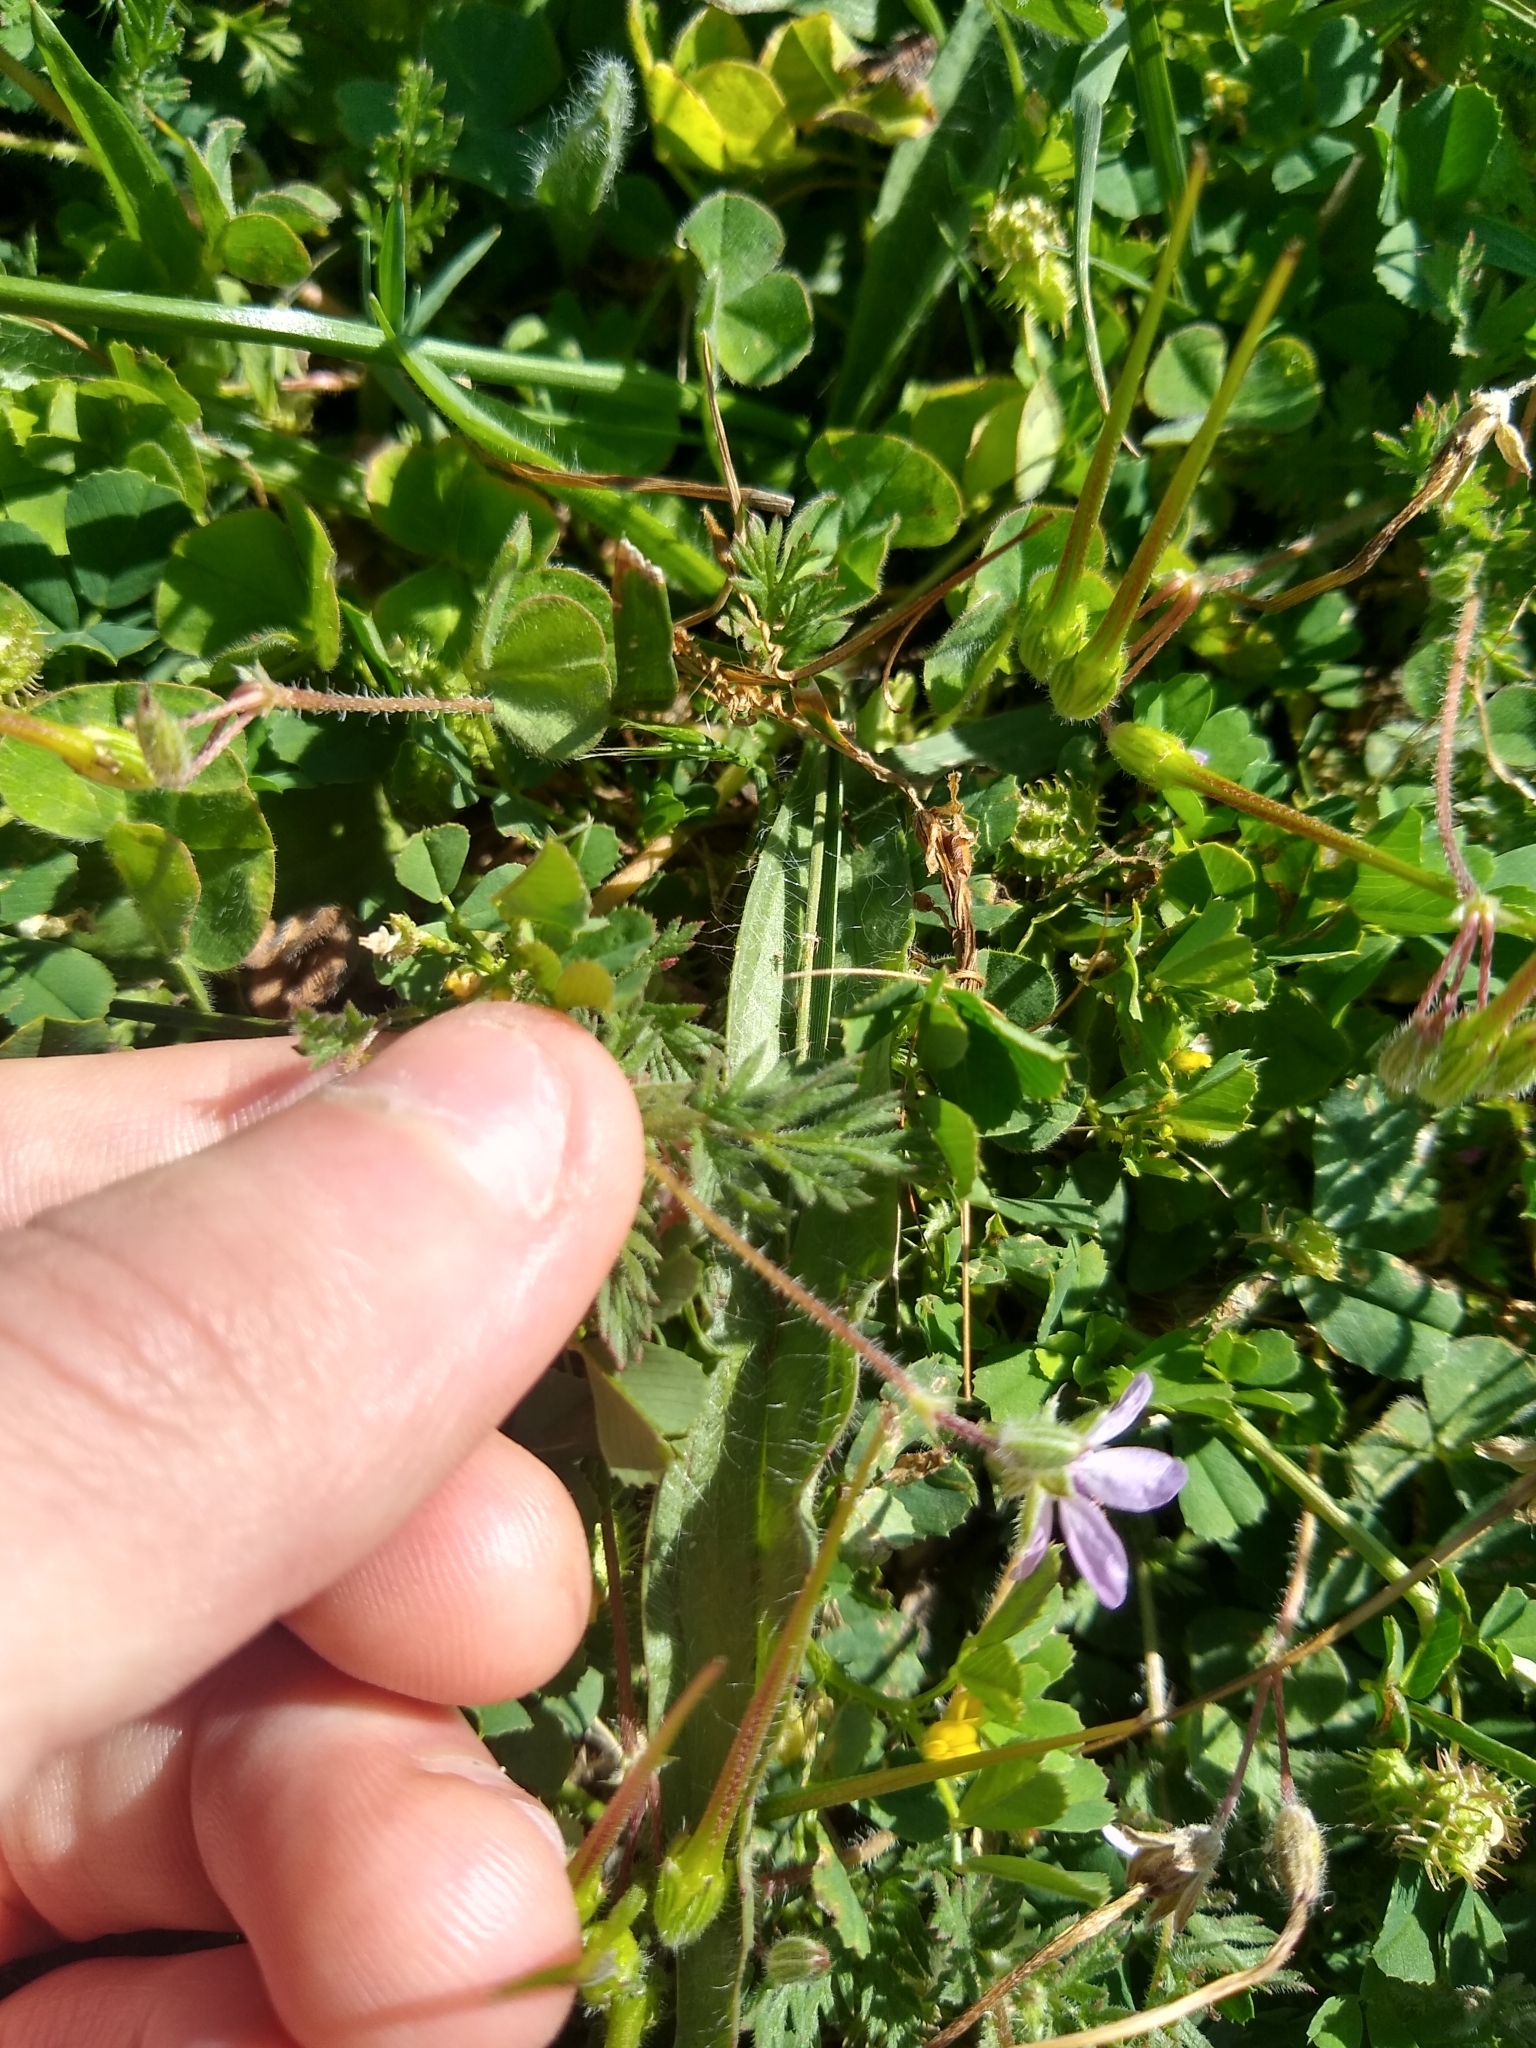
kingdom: Plantae
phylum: Tracheophyta
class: Magnoliopsida
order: Geraniales
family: Geraniaceae
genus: Erodium
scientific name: Erodium cicutarium
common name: Common stork's-bill
